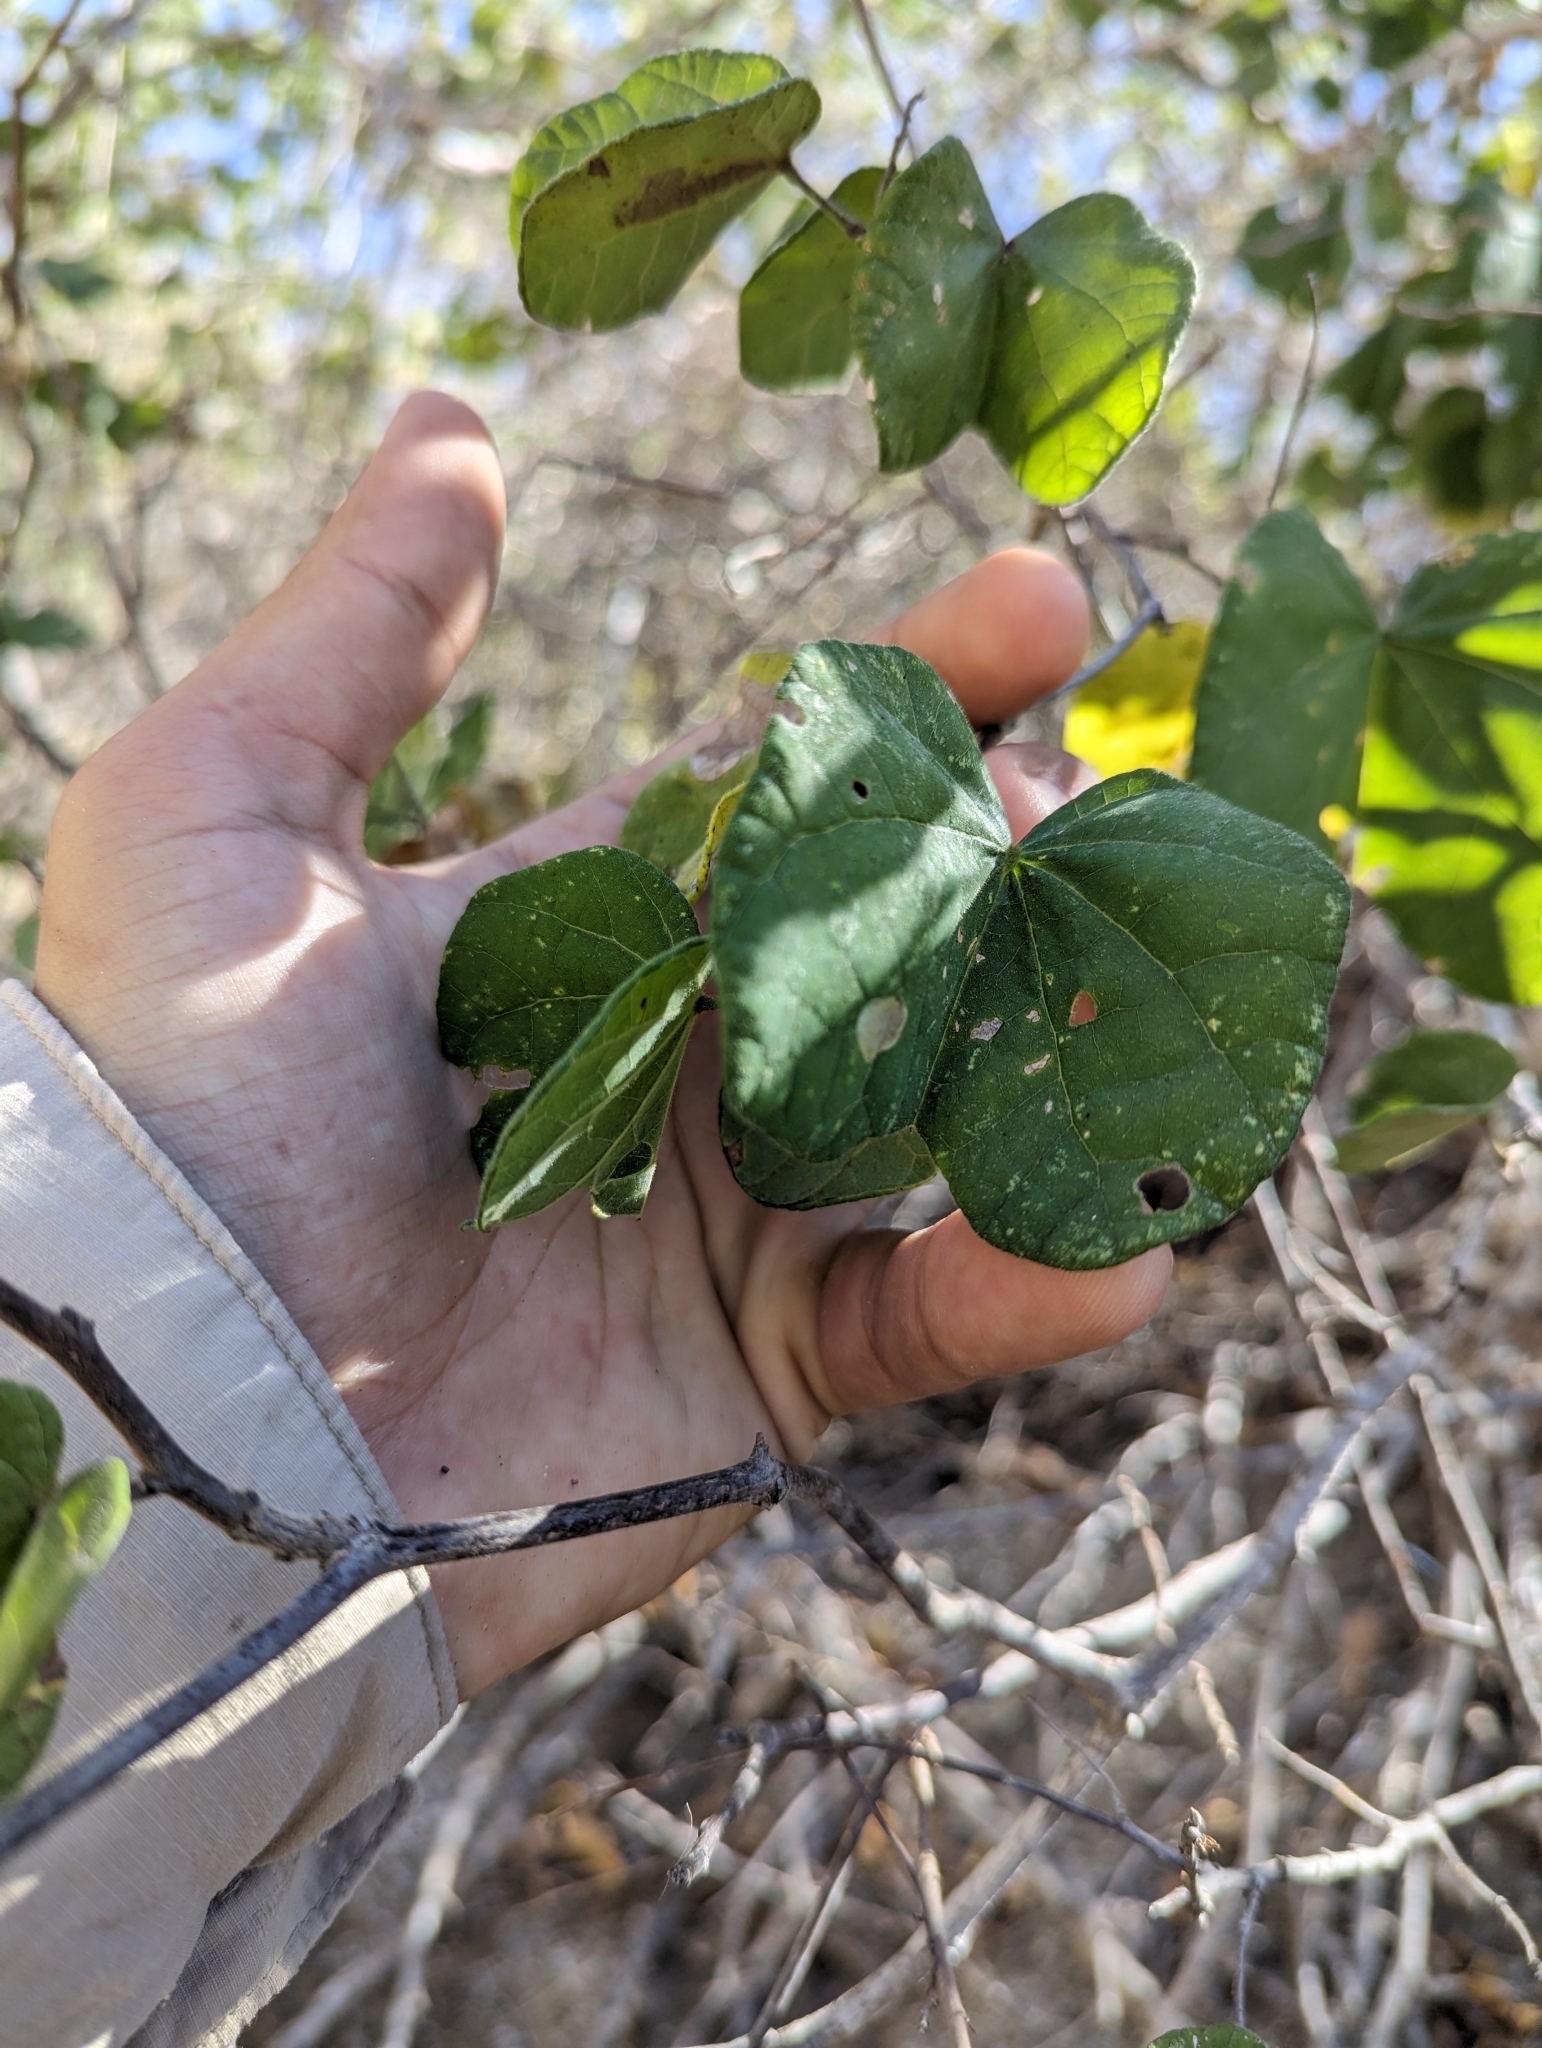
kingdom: Plantae
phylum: Tracheophyta
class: Magnoliopsida
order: Fabales
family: Fabaceae
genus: Bauhinia
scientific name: Bauhinia divaricata
